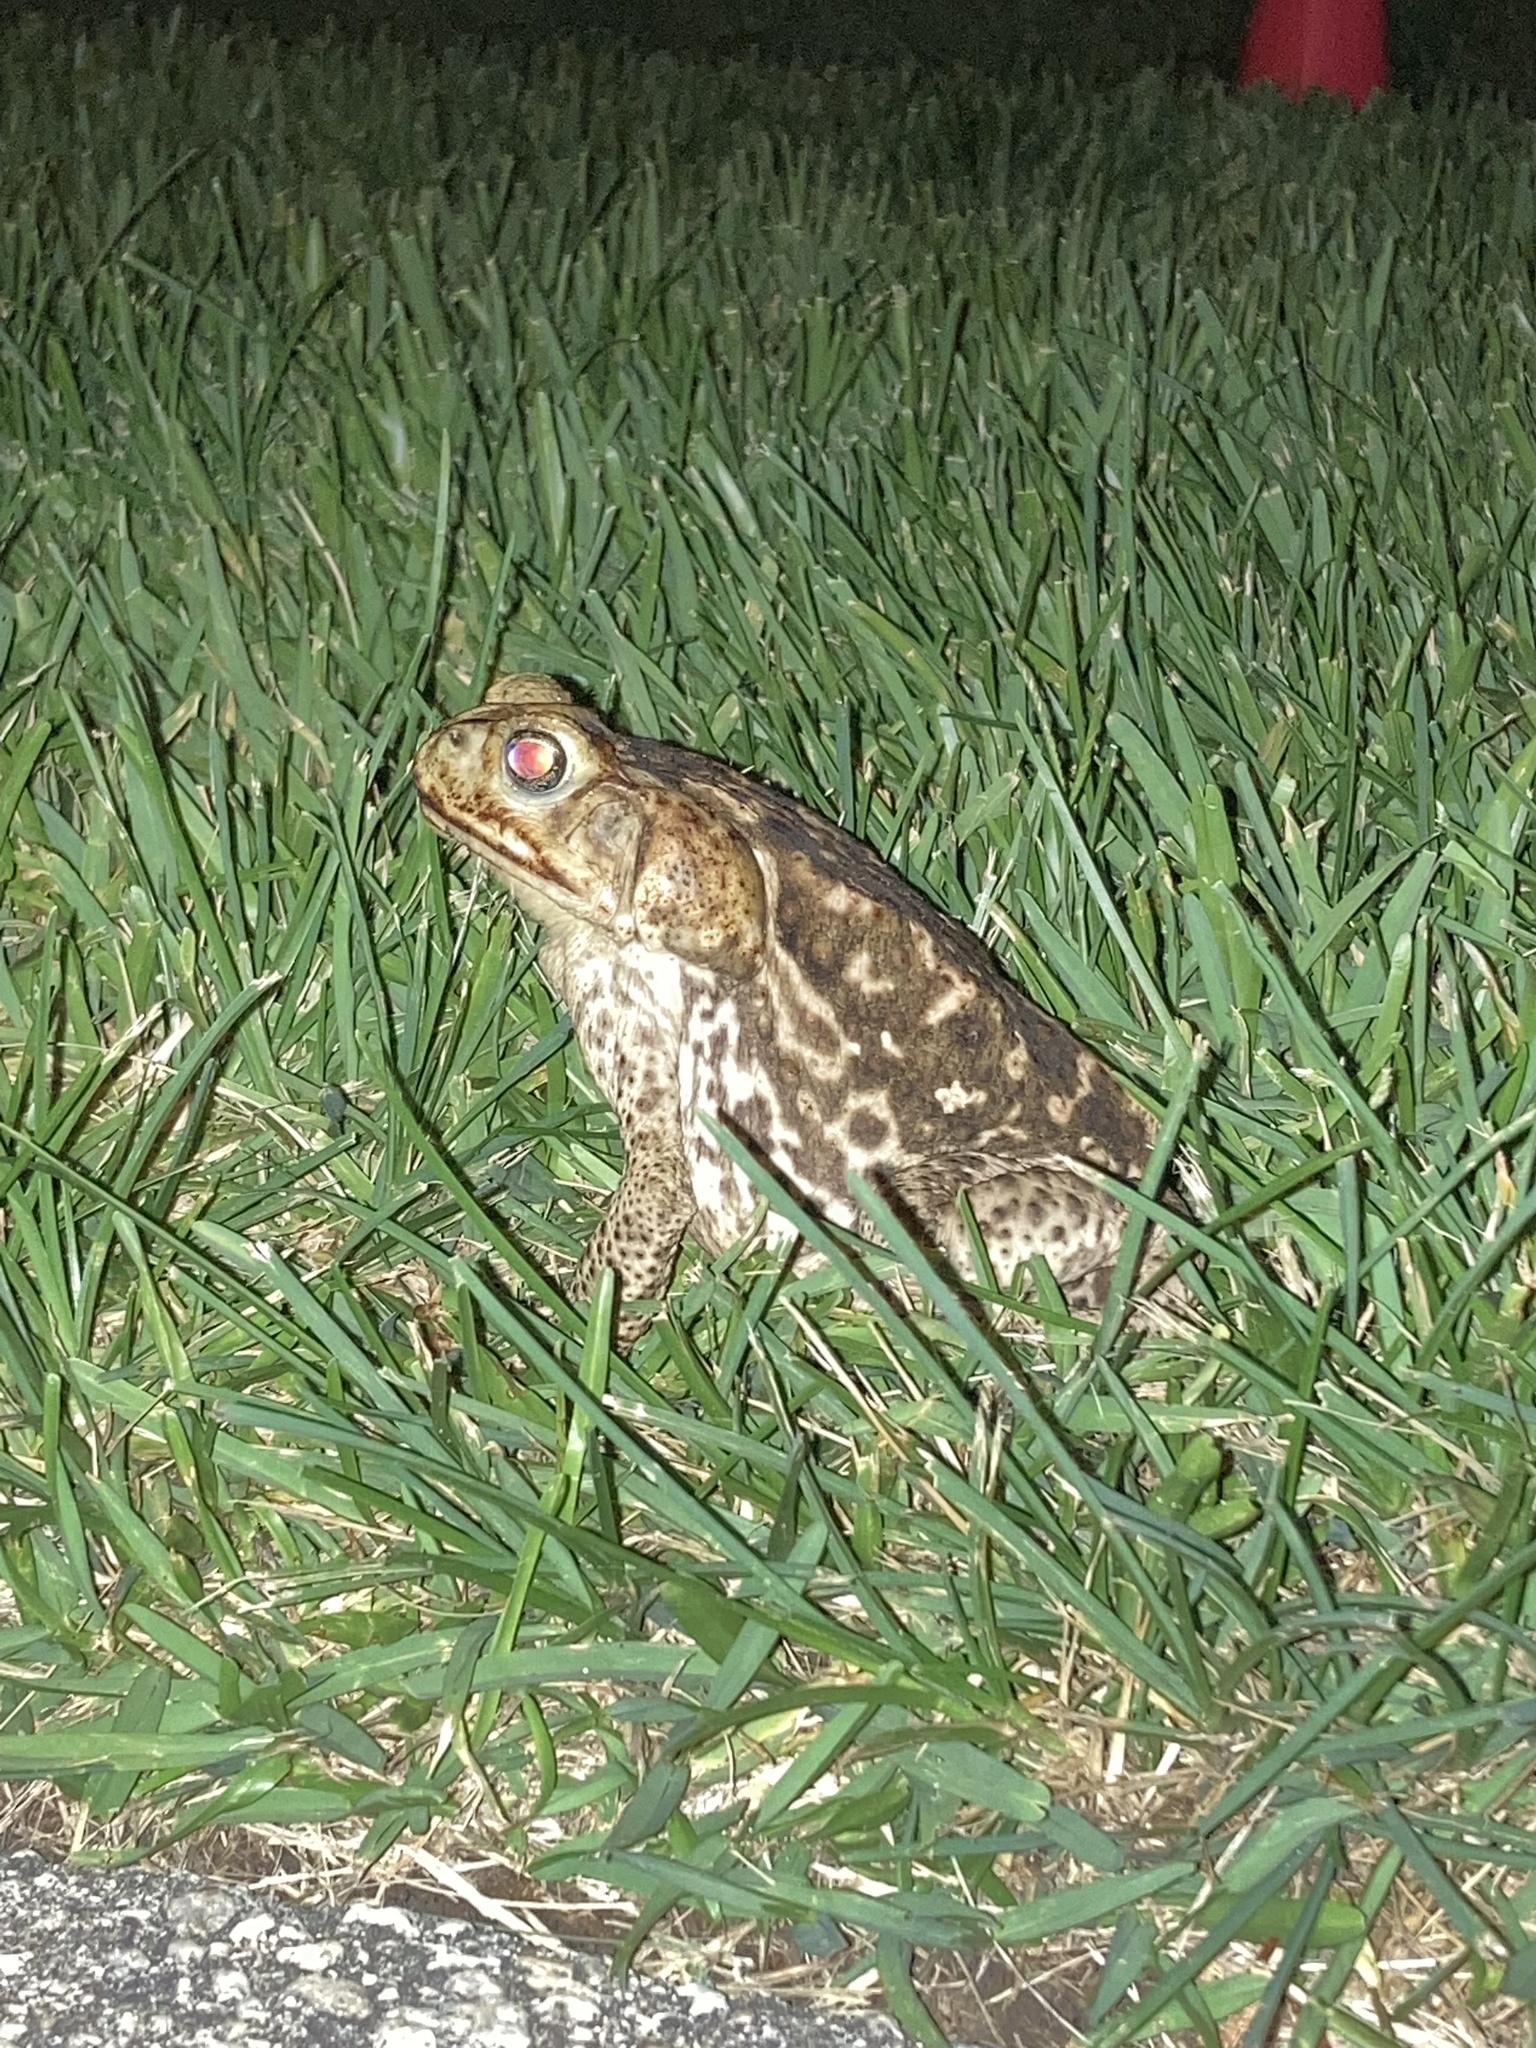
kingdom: Animalia
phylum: Chordata
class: Amphibia
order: Anura
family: Bufonidae
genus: Rhinella
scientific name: Rhinella marina
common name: Cane toad
